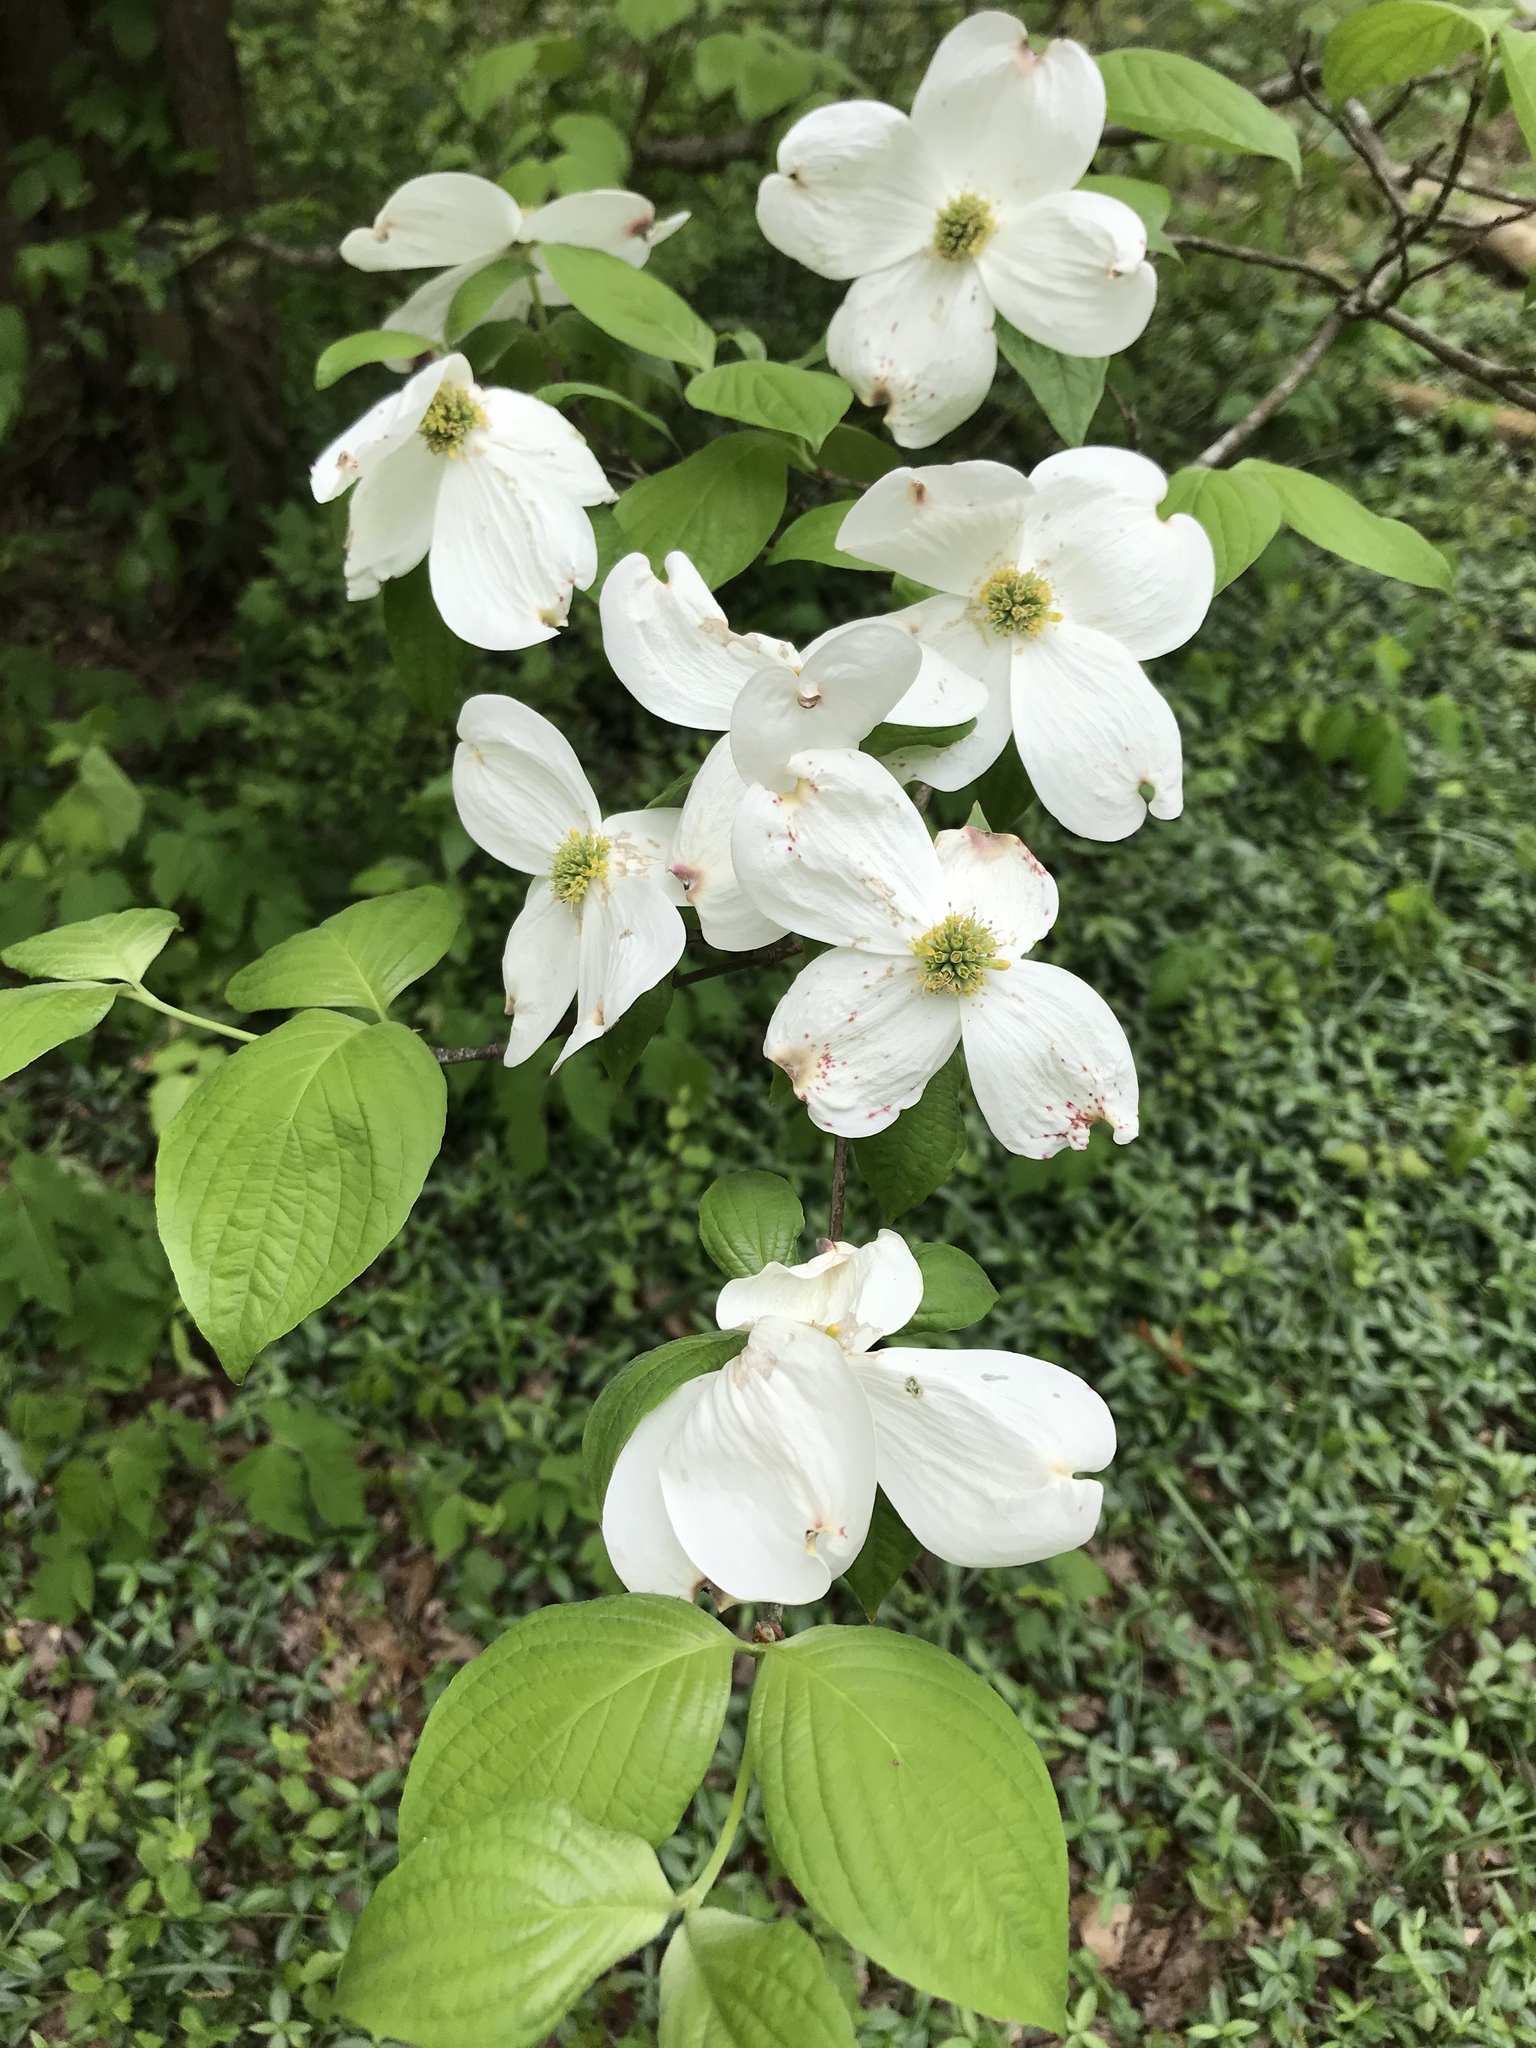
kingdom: Plantae
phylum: Tracheophyta
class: Magnoliopsida
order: Cornales
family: Cornaceae
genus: Cornus
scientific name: Cornus florida
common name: Flowering dogwood
